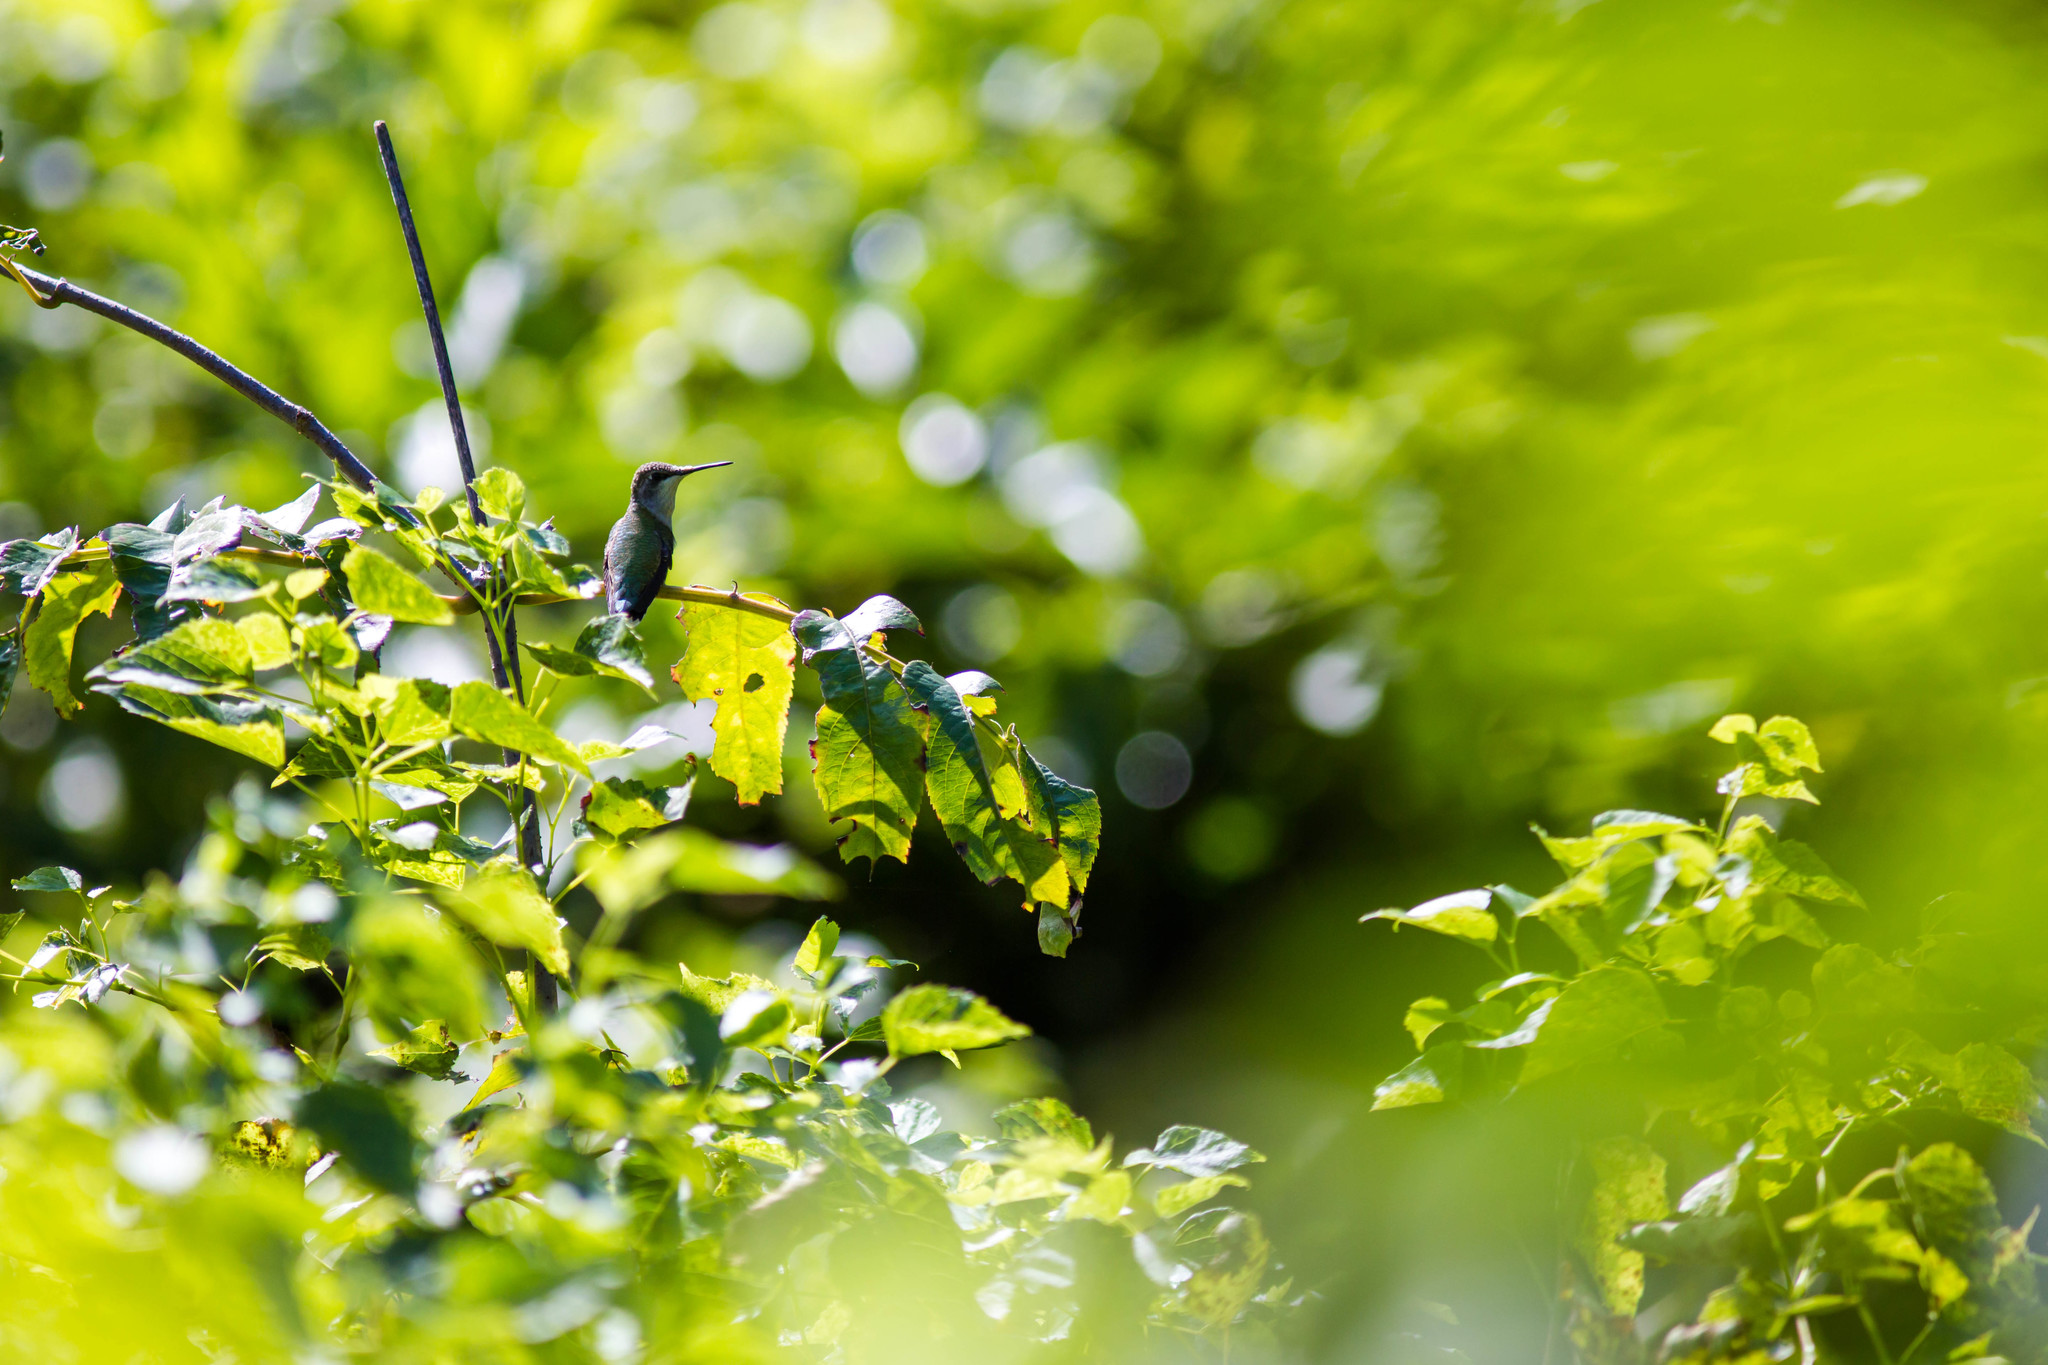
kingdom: Animalia
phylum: Chordata
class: Aves
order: Apodiformes
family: Trochilidae
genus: Archilochus
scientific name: Archilochus colubris
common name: Ruby-throated hummingbird
